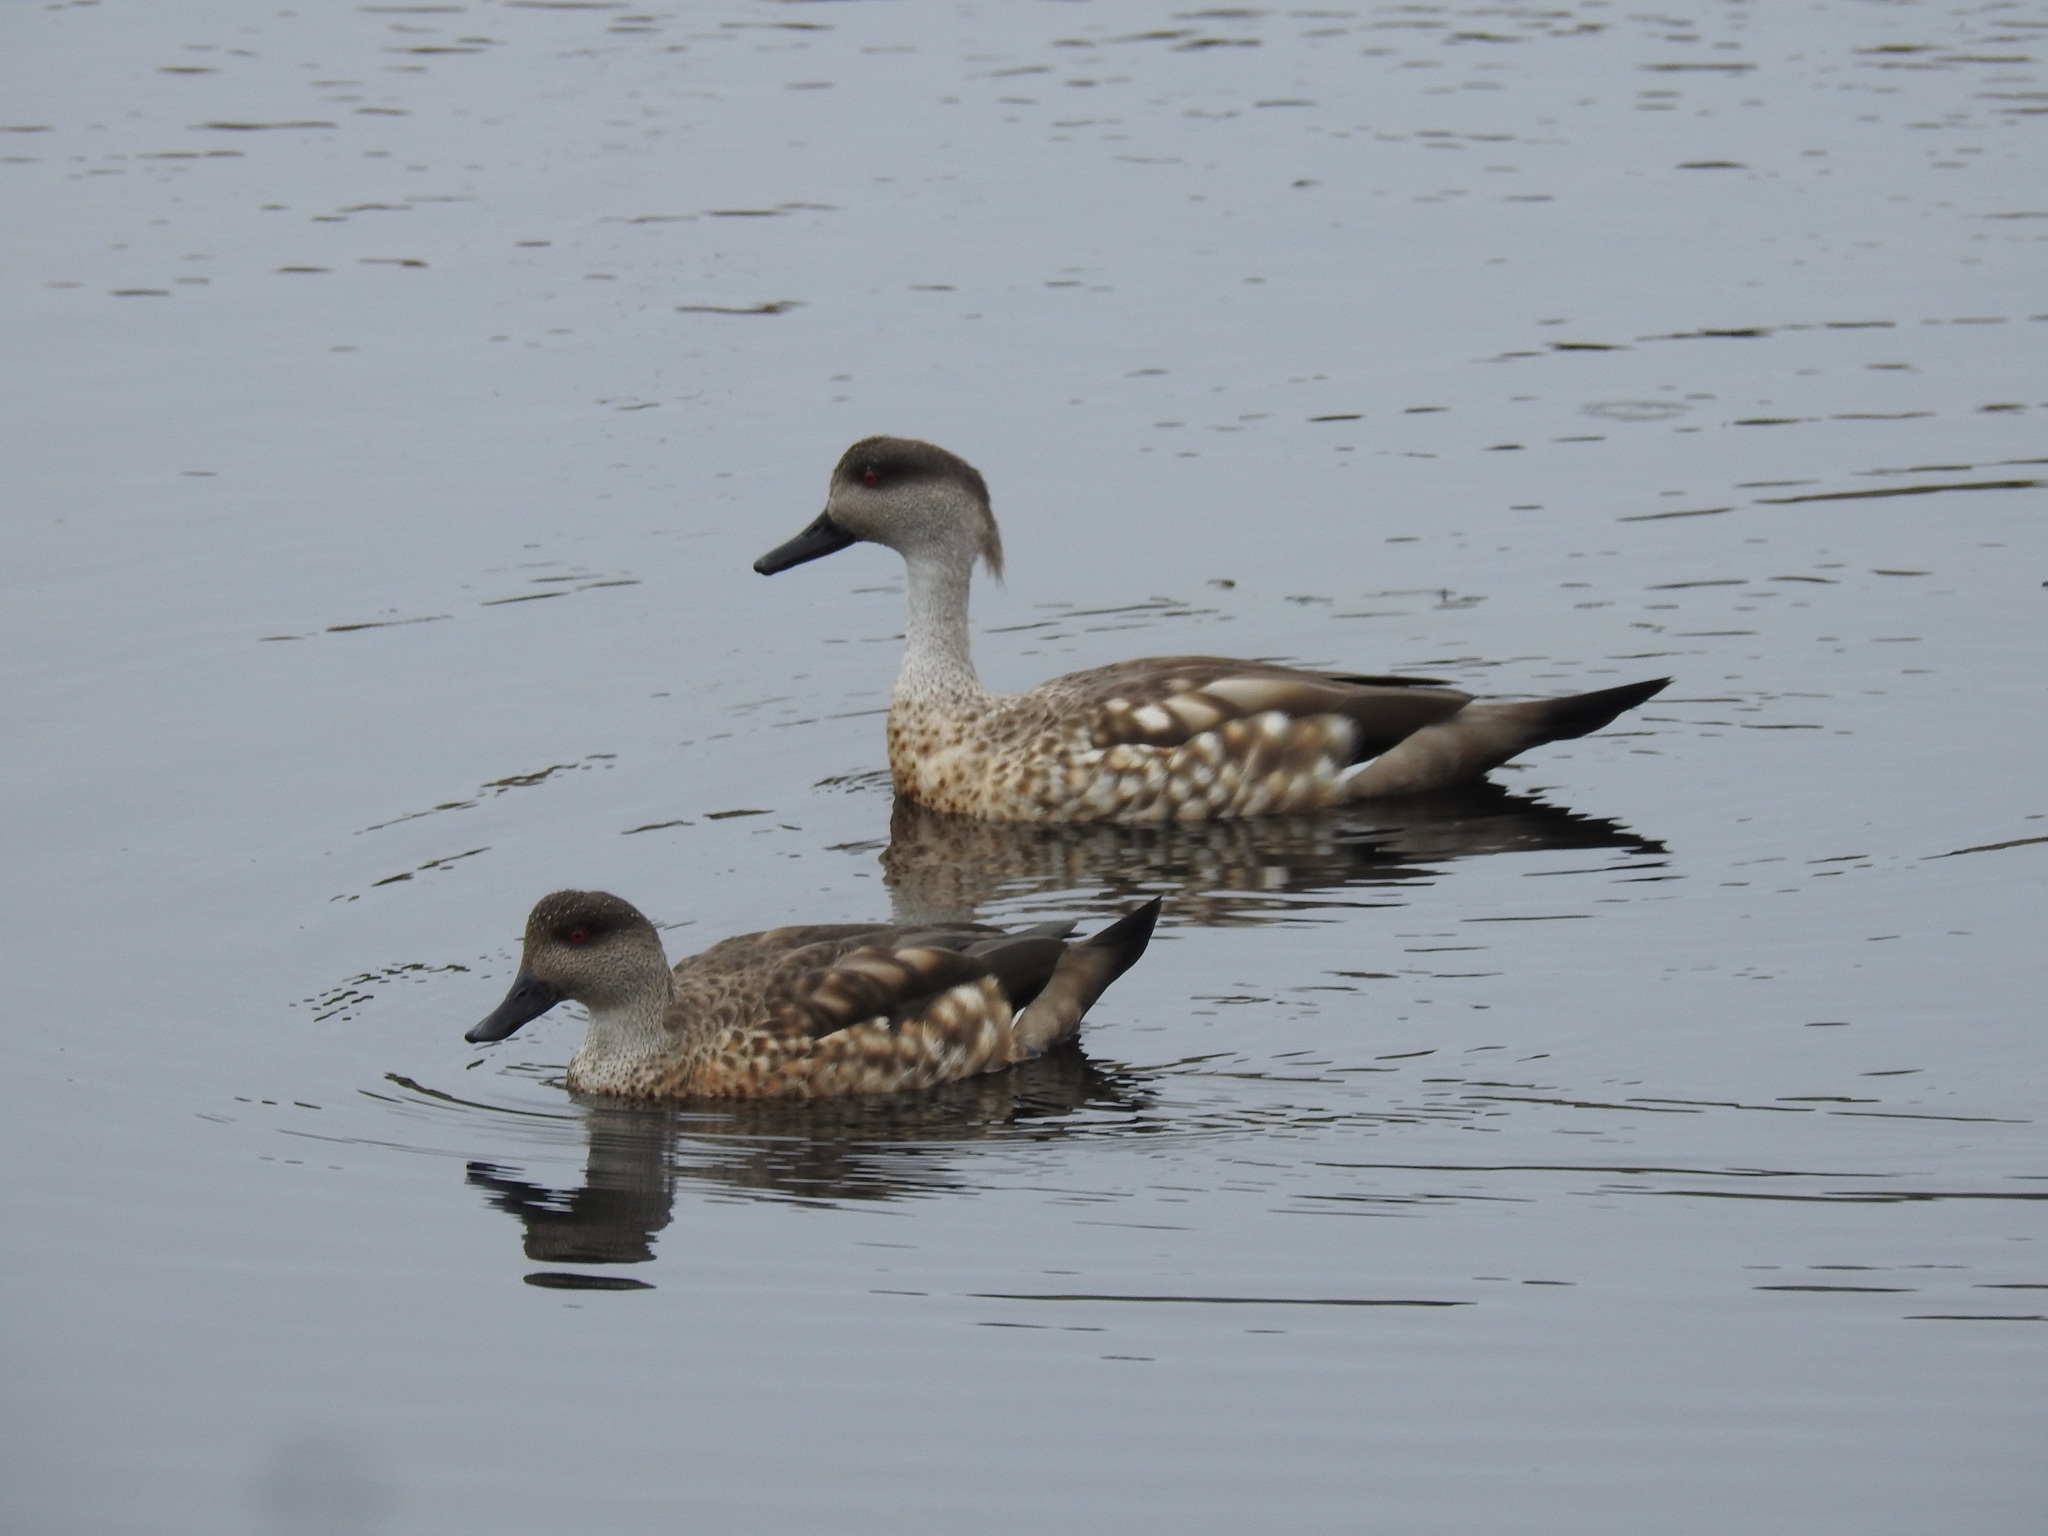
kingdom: Animalia
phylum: Chordata
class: Aves
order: Anseriformes
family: Anatidae
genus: Lophonetta
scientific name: Lophonetta specularioides
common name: Crested duck
